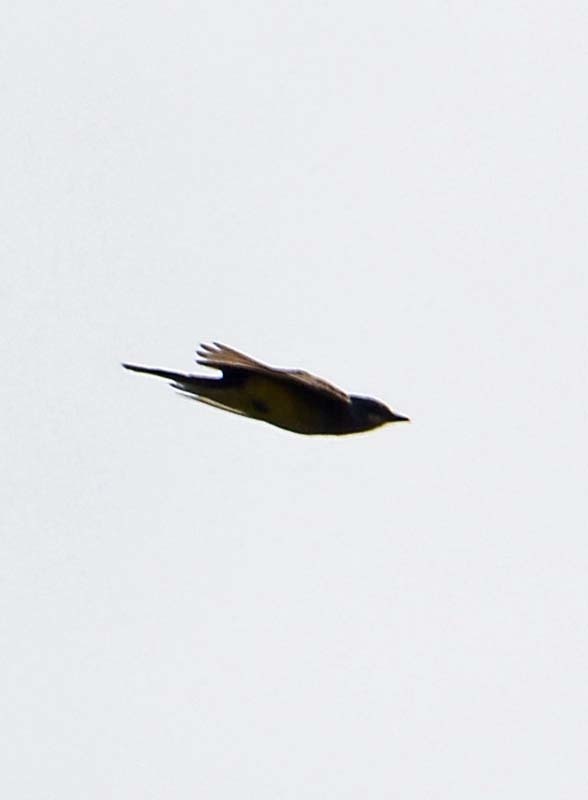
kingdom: Animalia
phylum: Chordata
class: Aves
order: Passeriformes
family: Tyrannidae
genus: Tyrannus
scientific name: Tyrannus vociferans
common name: Cassin's kingbird
